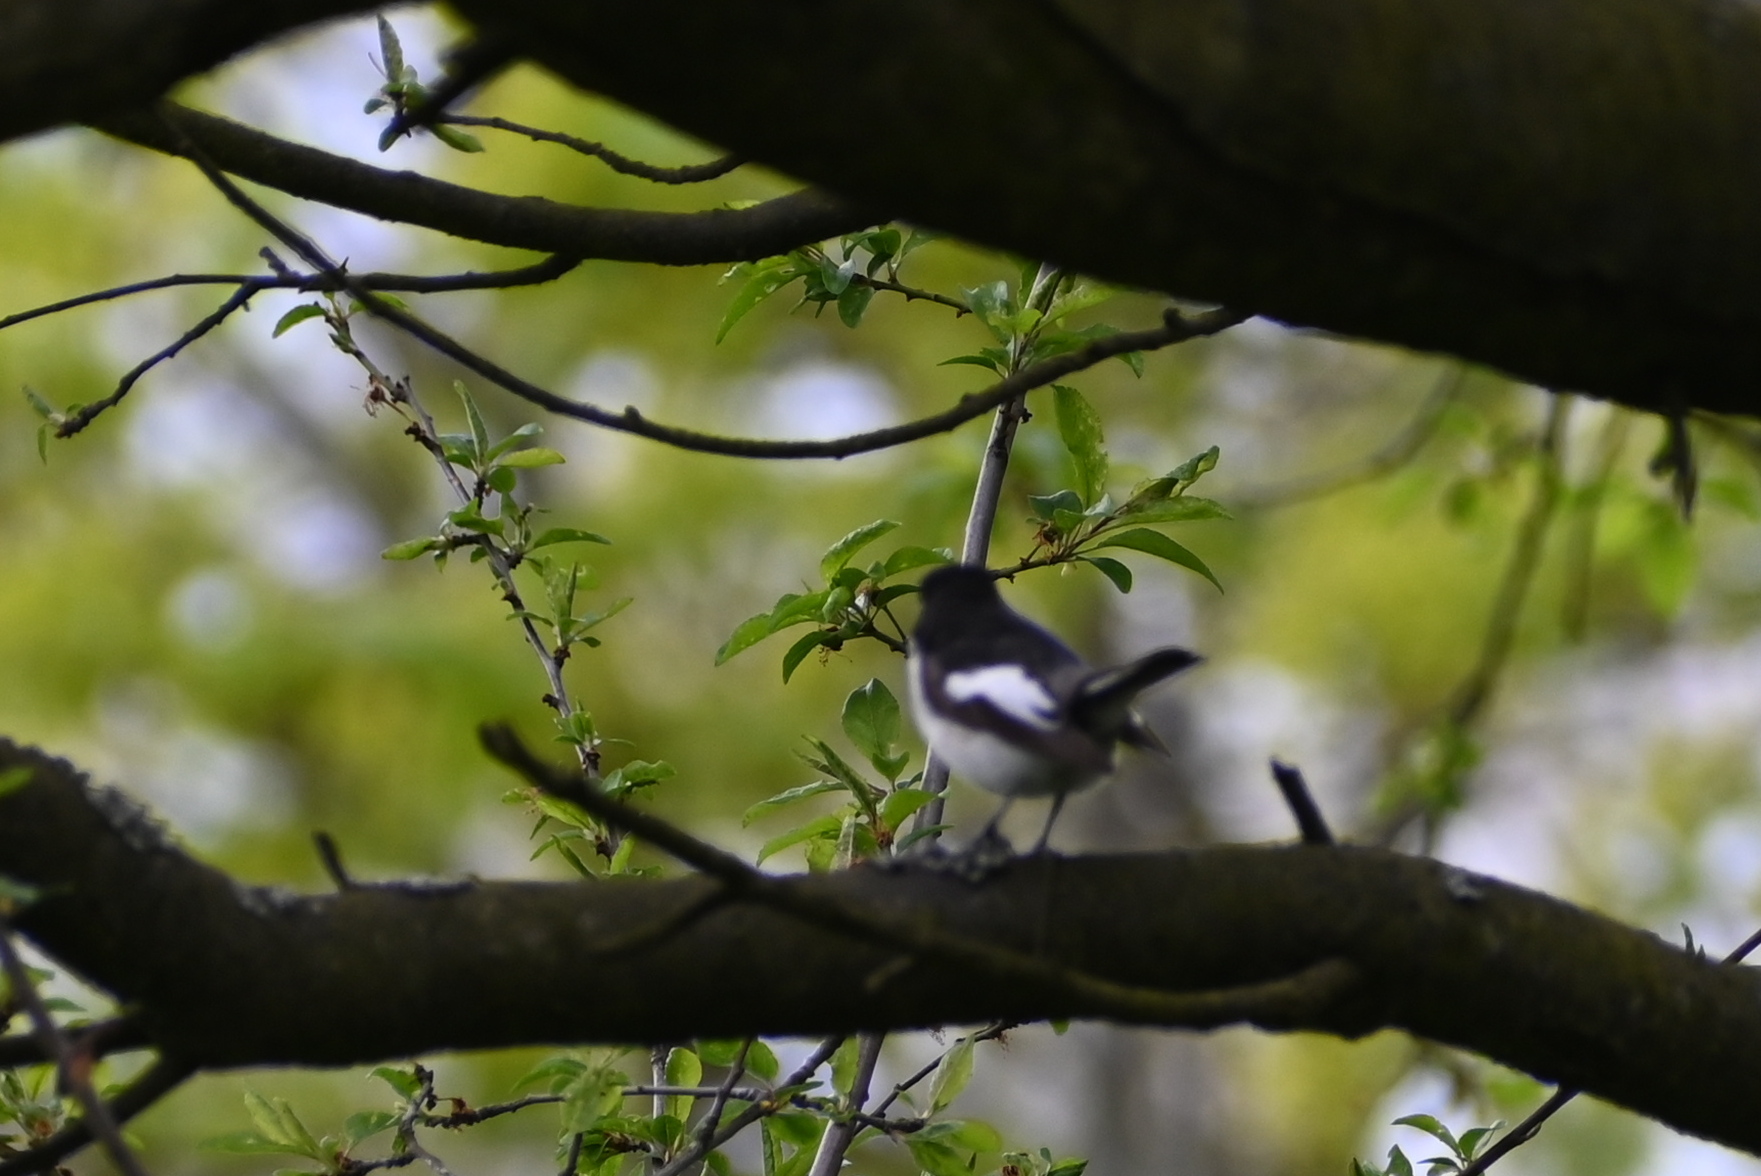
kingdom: Animalia
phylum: Chordata
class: Aves
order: Passeriformes
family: Muscicapidae
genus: Ficedula
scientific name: Ficedula hypoleuca
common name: European pied flycatcher
